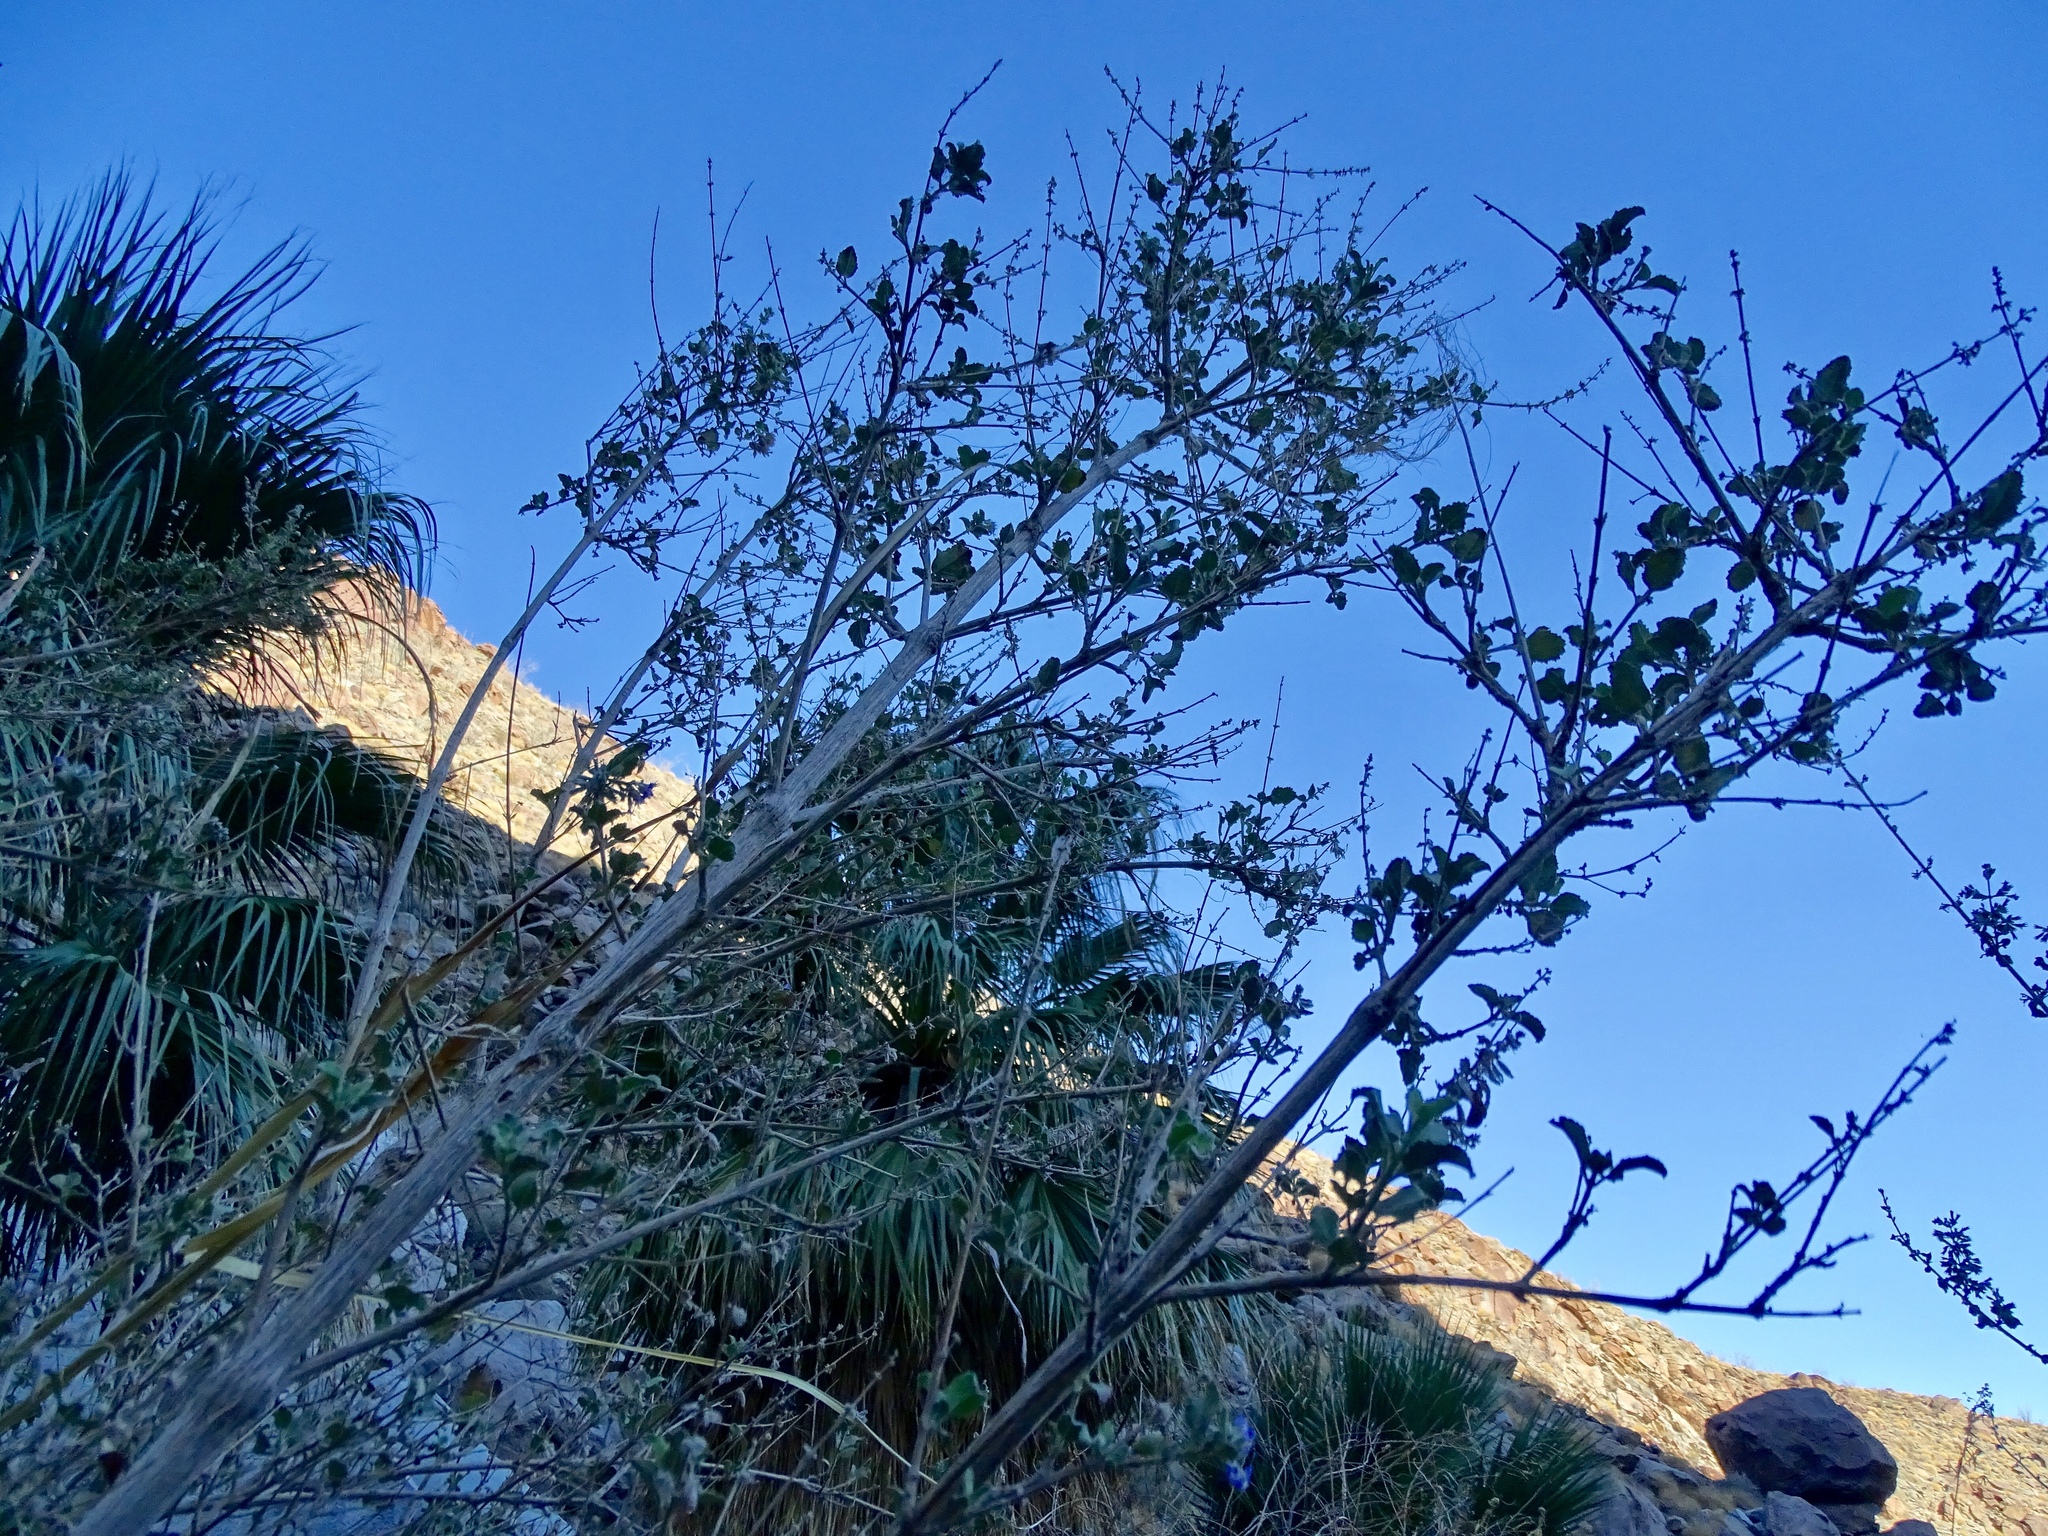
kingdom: Plantae
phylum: Tracheophyta
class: Magnoliopsida
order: Lamiales
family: Lamiaceae
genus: Condea
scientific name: Condea emoryi
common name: Chia
